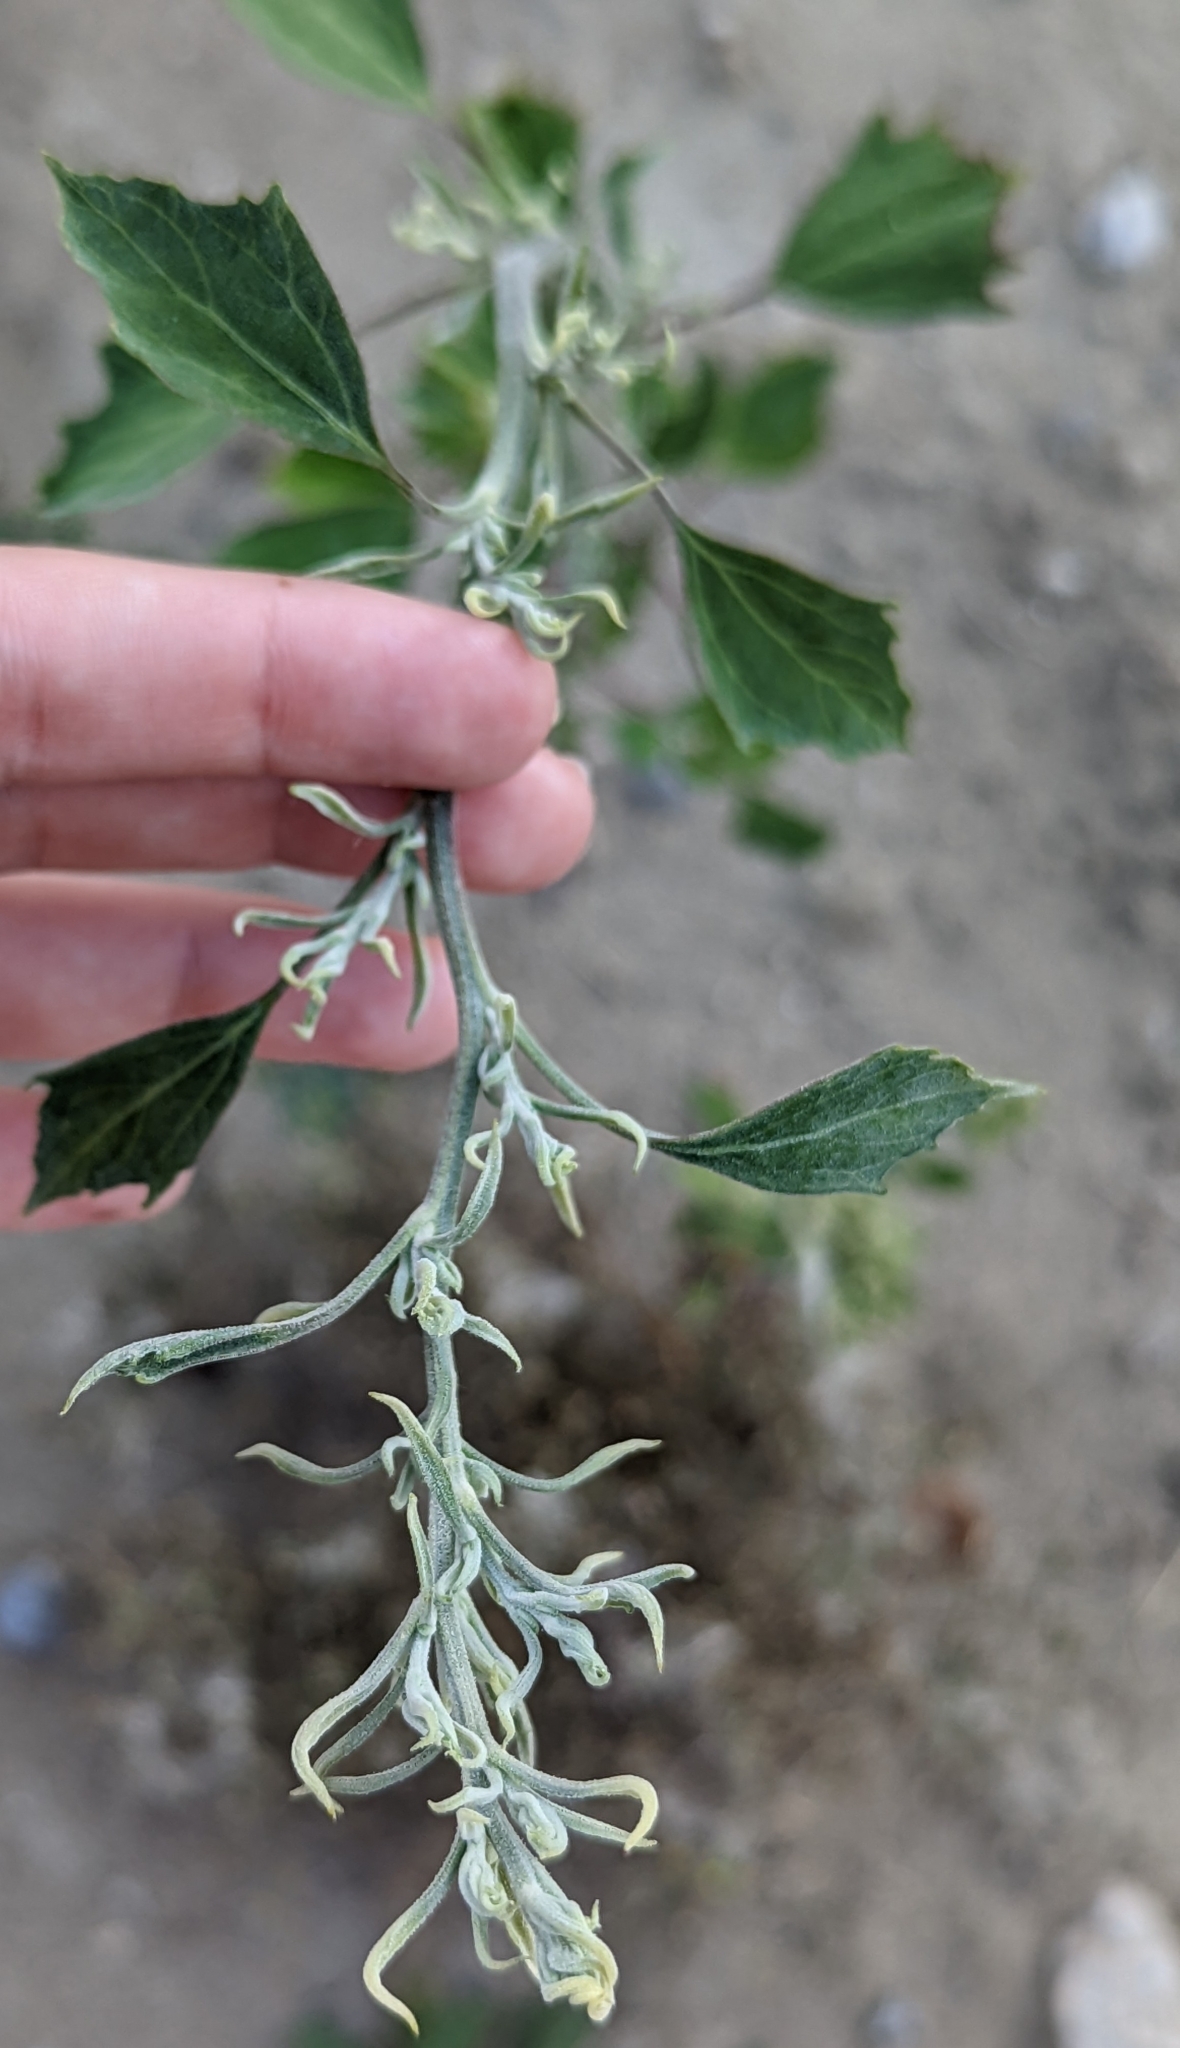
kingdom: Plantae
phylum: Tracheophyta
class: Magnoliopsida
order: Caryophyllales
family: Amaranthaceae
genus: Chenopodium
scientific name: Chenopodium album
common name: Fat-hen
